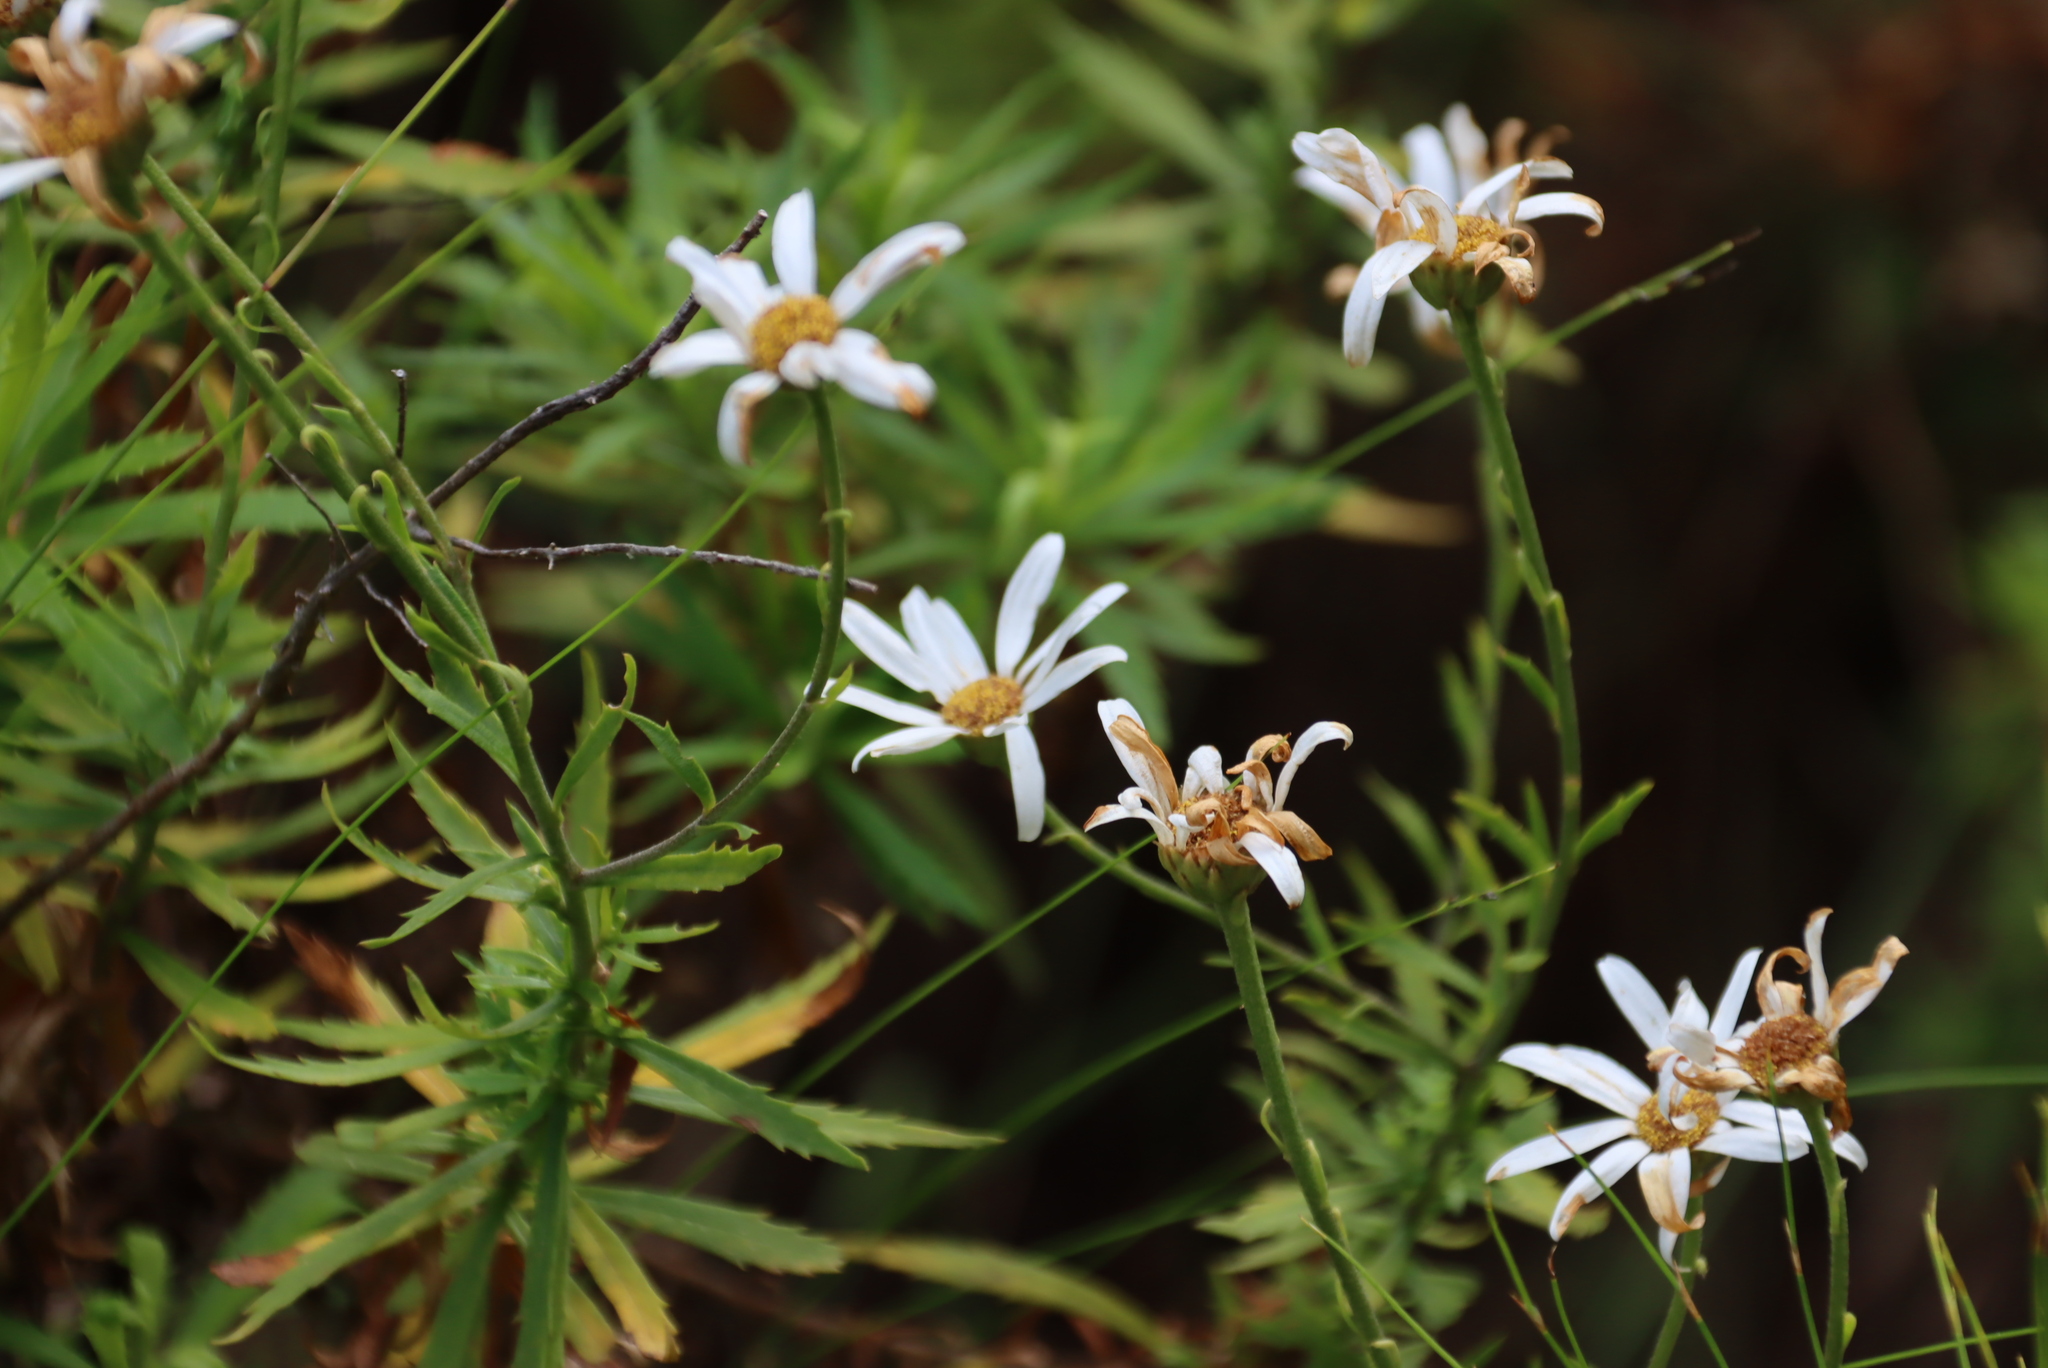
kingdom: Plantae
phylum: Tracheophyta
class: Magnoliopsida
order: Asterales
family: Asteraceae
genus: Osmitopsis
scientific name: Osmitopsis osmitoides
